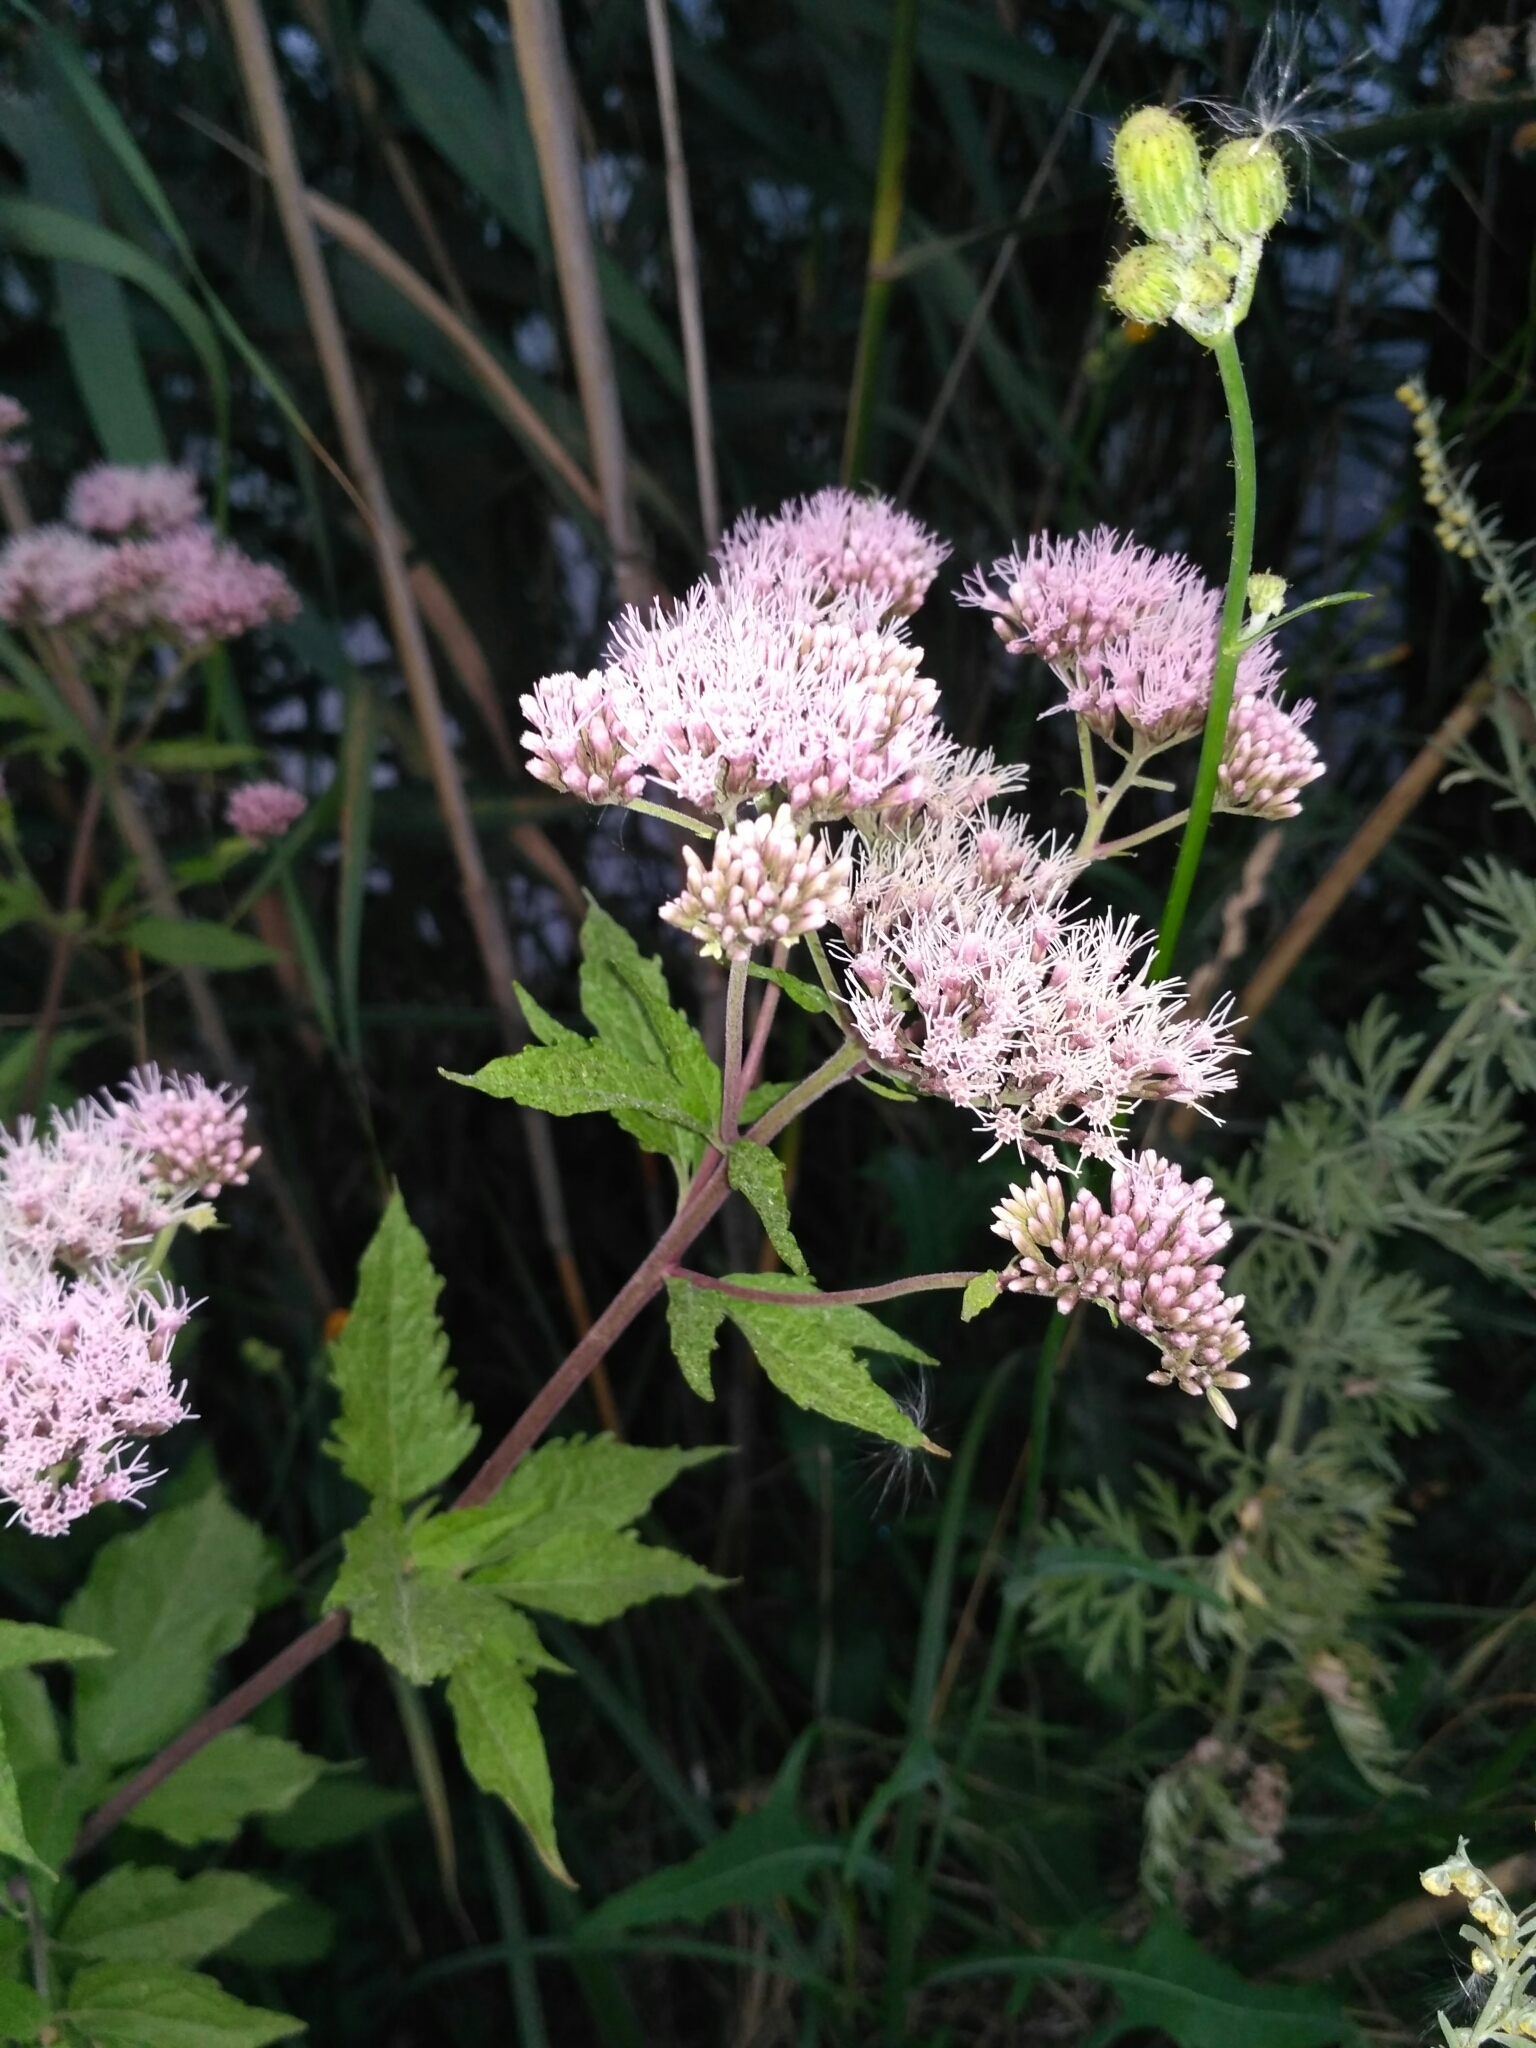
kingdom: Plantae
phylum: Tracheophyta
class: Magnoliopsida
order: Asterales
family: Asteraceae
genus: Eupatorium
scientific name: Eupatorium cannabinum
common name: Hemp-agrimony
